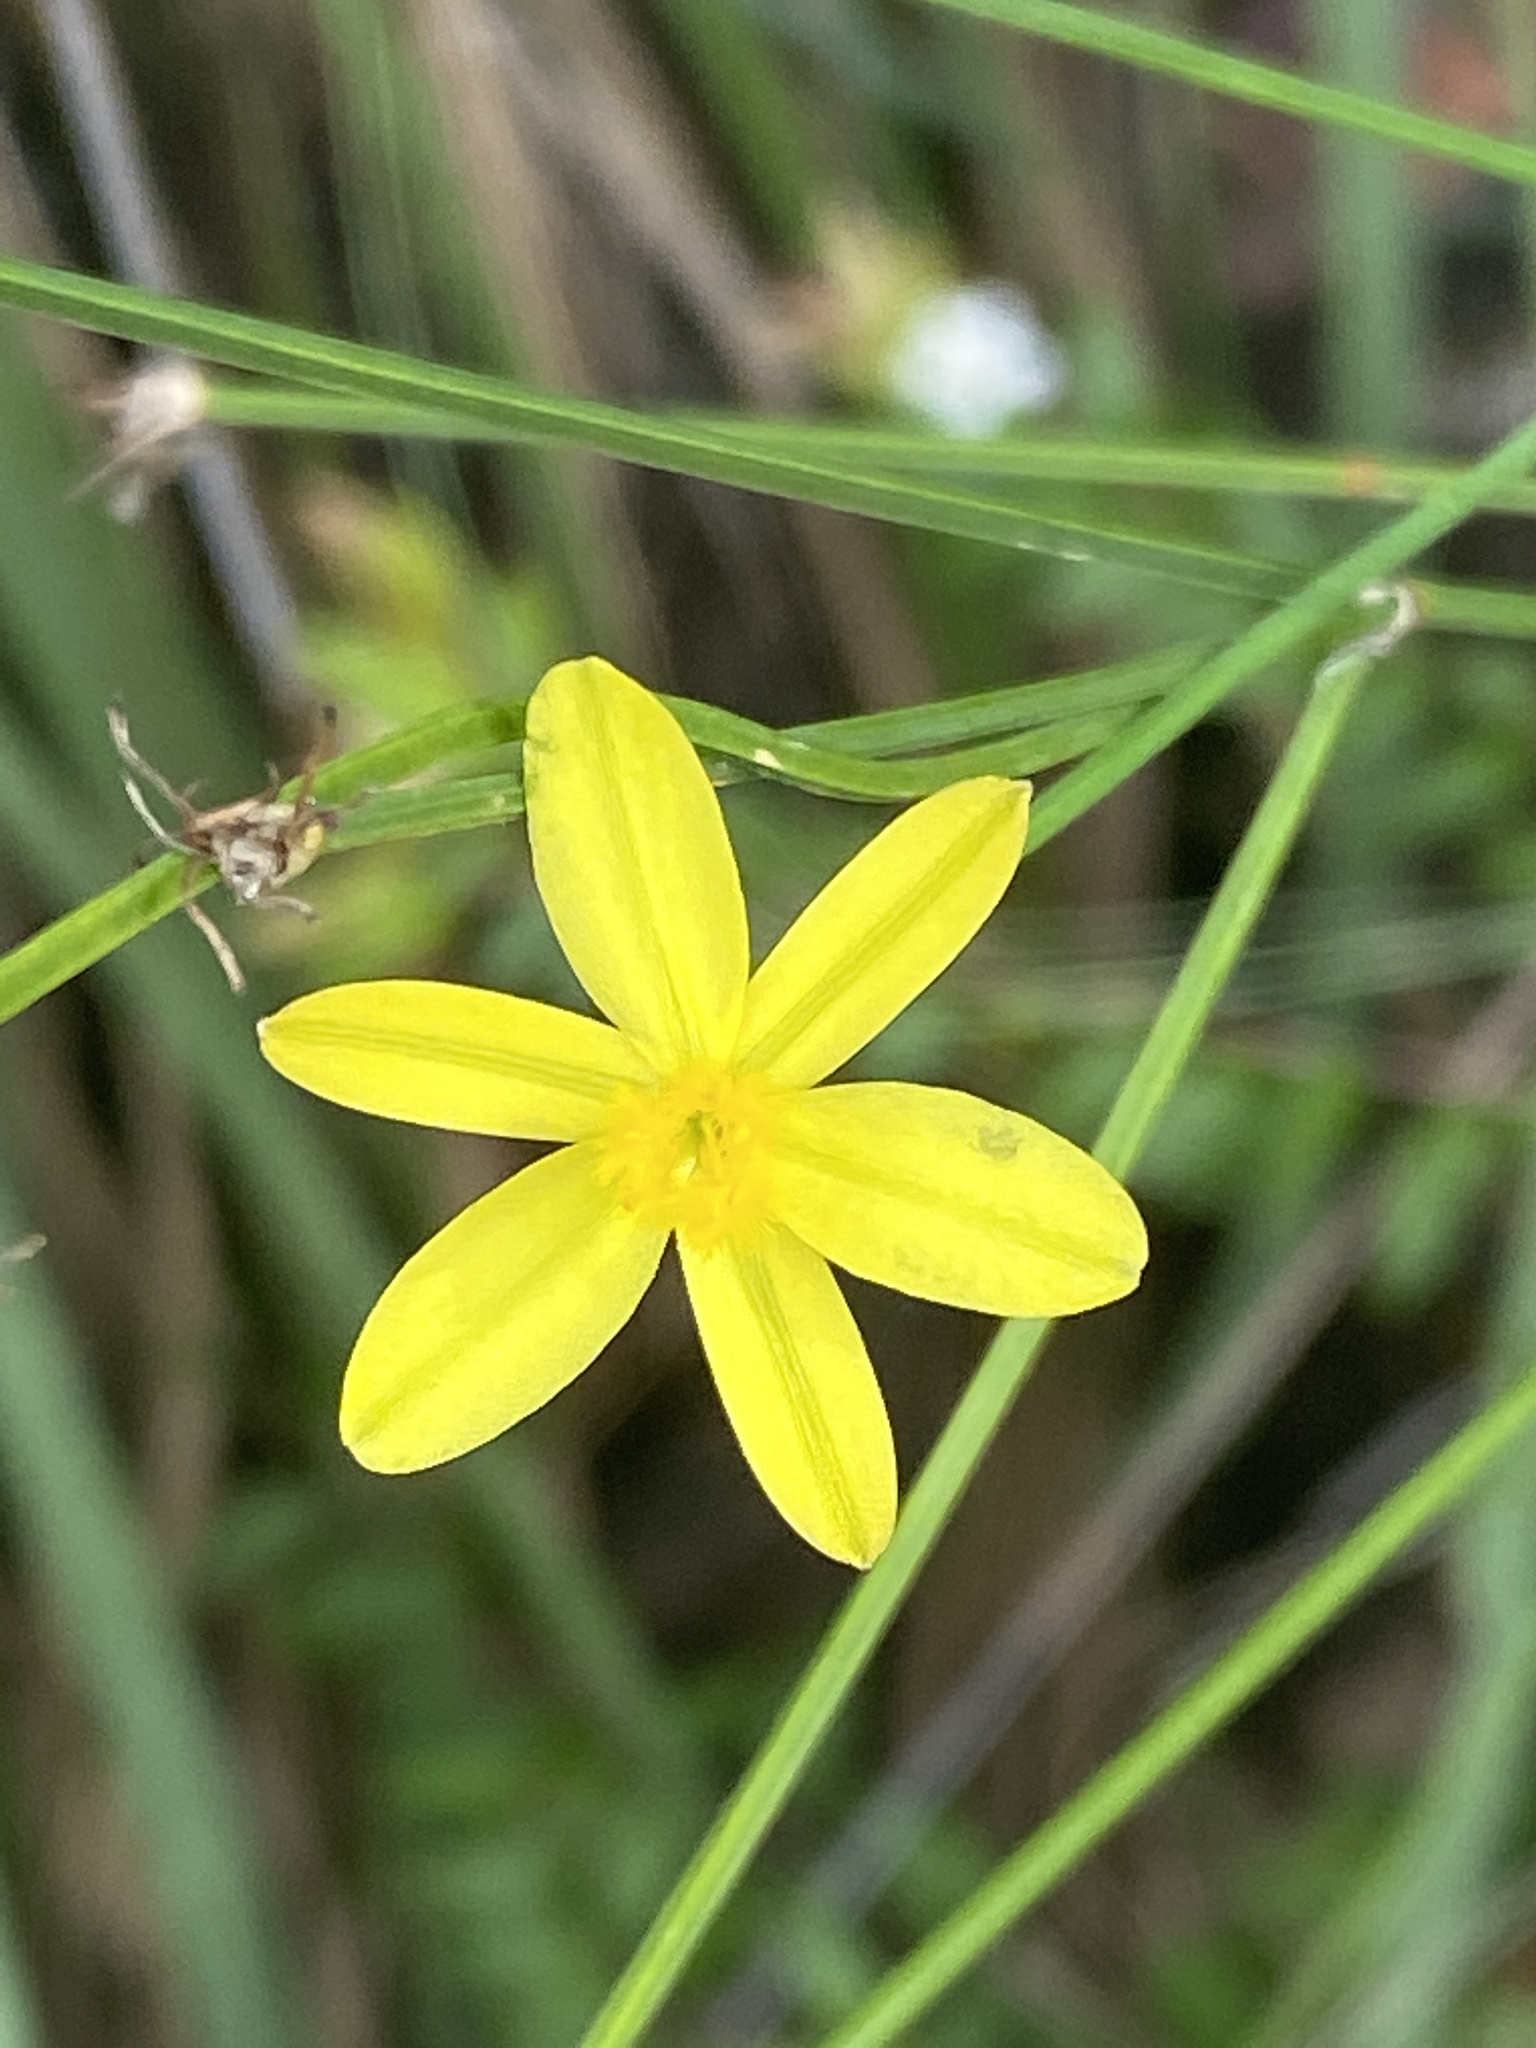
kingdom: Plantae
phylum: Tracheophyta
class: Liliopsida
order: Asparagales
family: Asphodelaceae
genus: Tricoryne
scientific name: Tricoryne elatior
